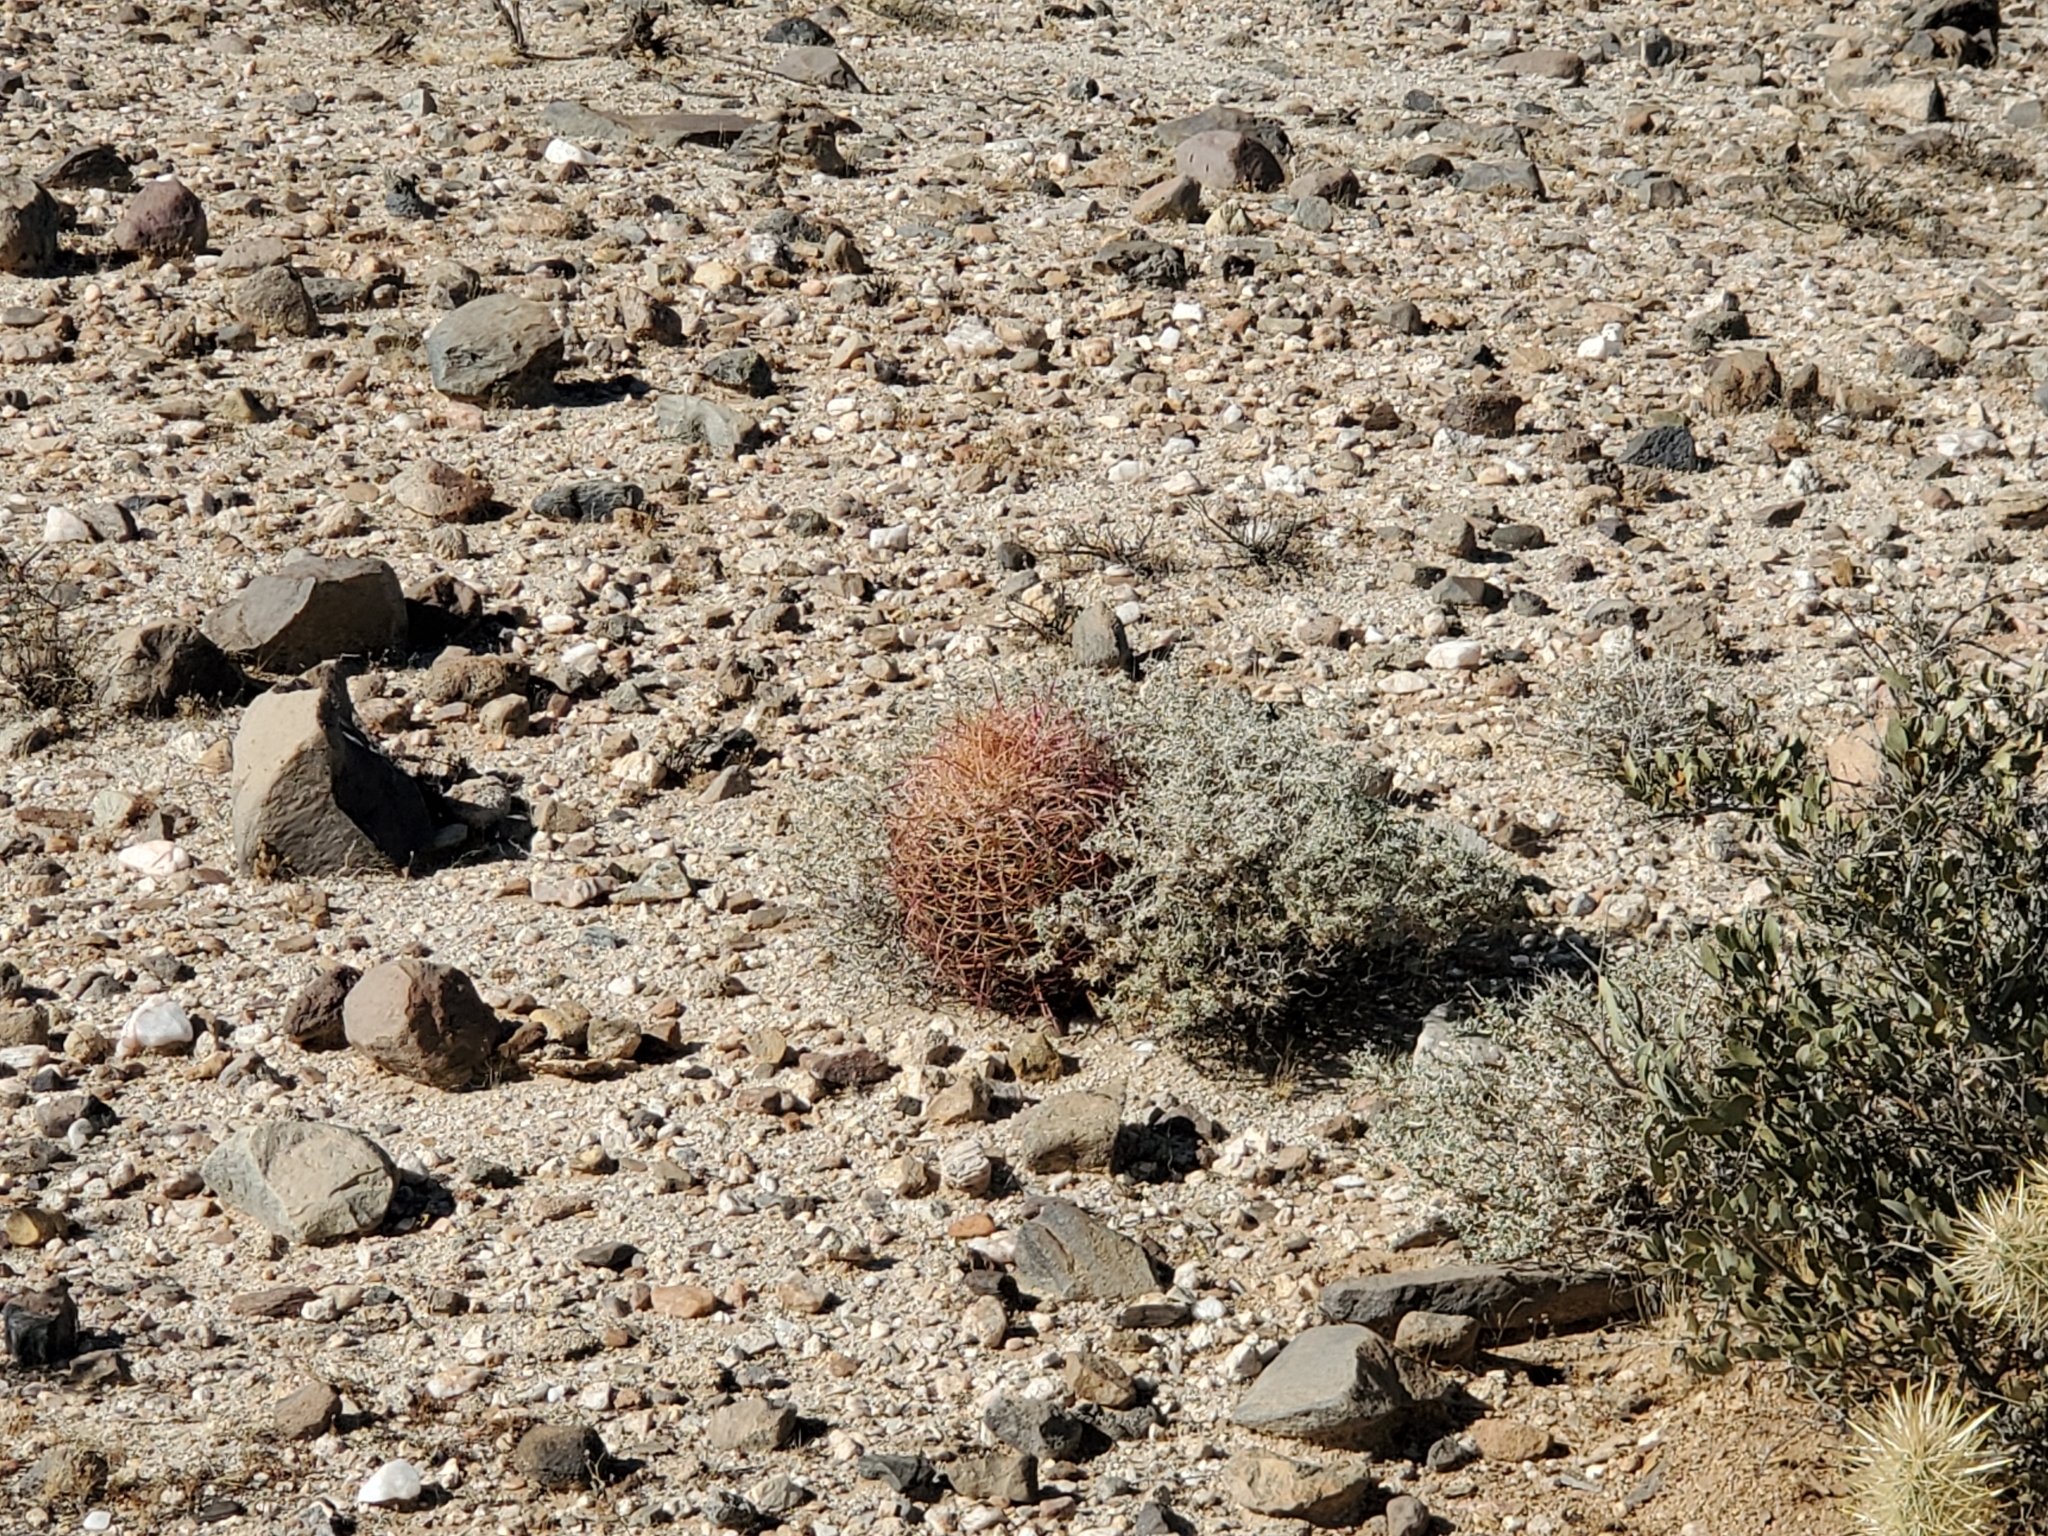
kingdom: Plantae
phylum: Tracheophyta
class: Magnoliopsida
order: Caryophyllales
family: Cactaceae
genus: Ferocactus
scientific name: Ferocactus cylindraceus
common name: California barrel cactus
